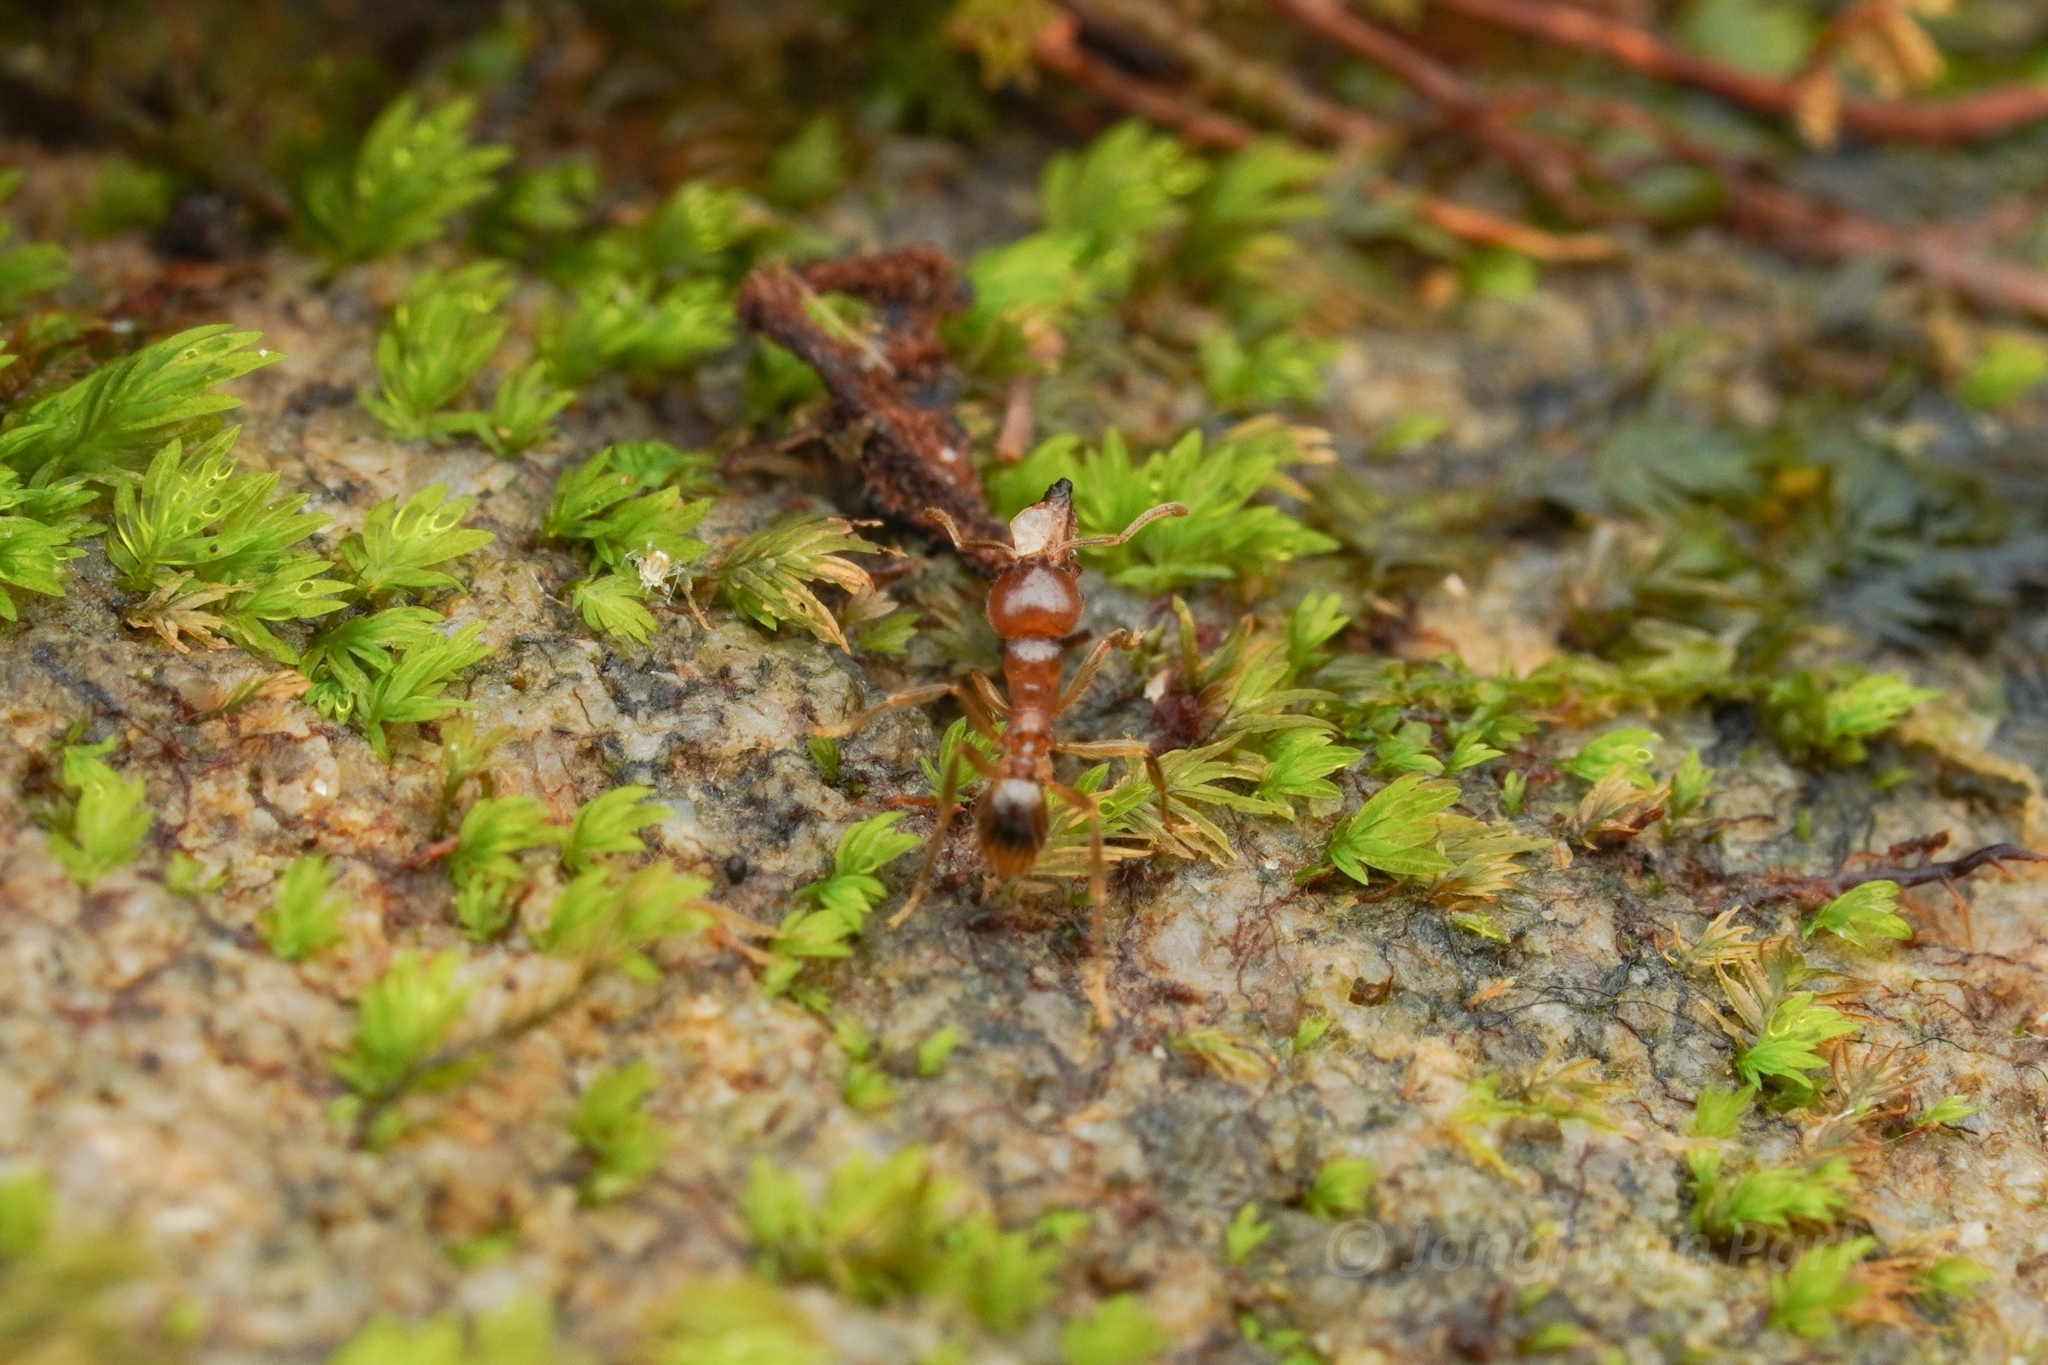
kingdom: Animalia
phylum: Arthropoda
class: Insecta
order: Hymenoptera
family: Formicidae
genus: Lophomyrmex
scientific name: Lophomyrmex bedoti
